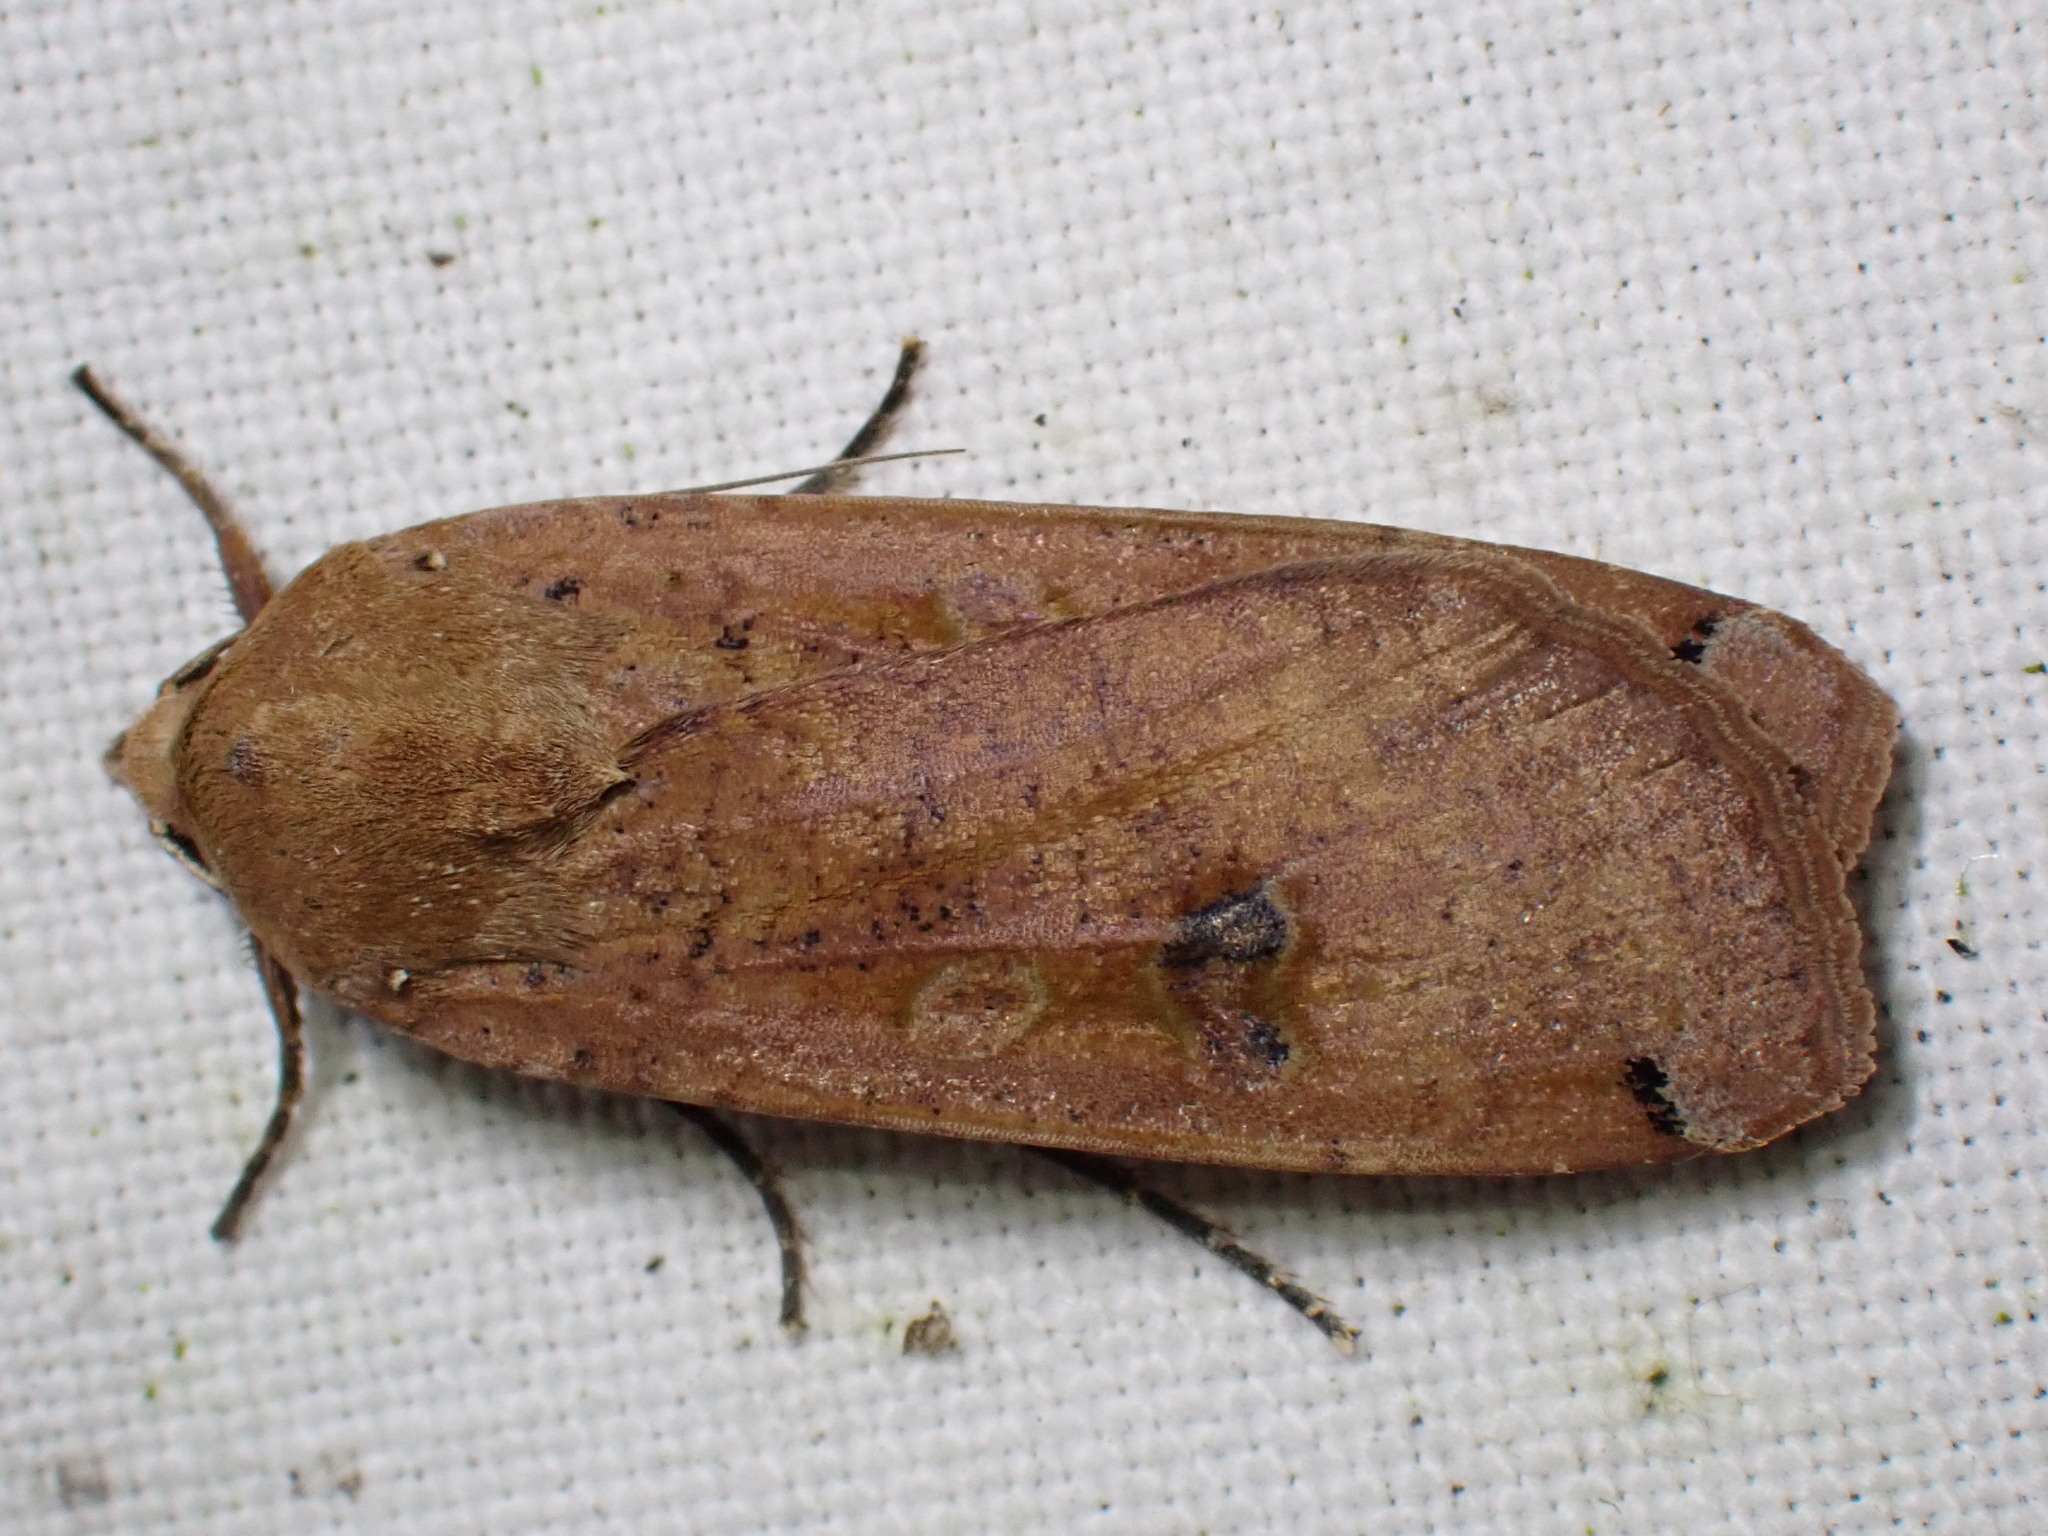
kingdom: Animalia
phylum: Arthropoda
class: Insecta
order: Lepidoptera
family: Noctuidae
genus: Noctua
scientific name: Noctua pronuba
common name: Large yellow underwing
